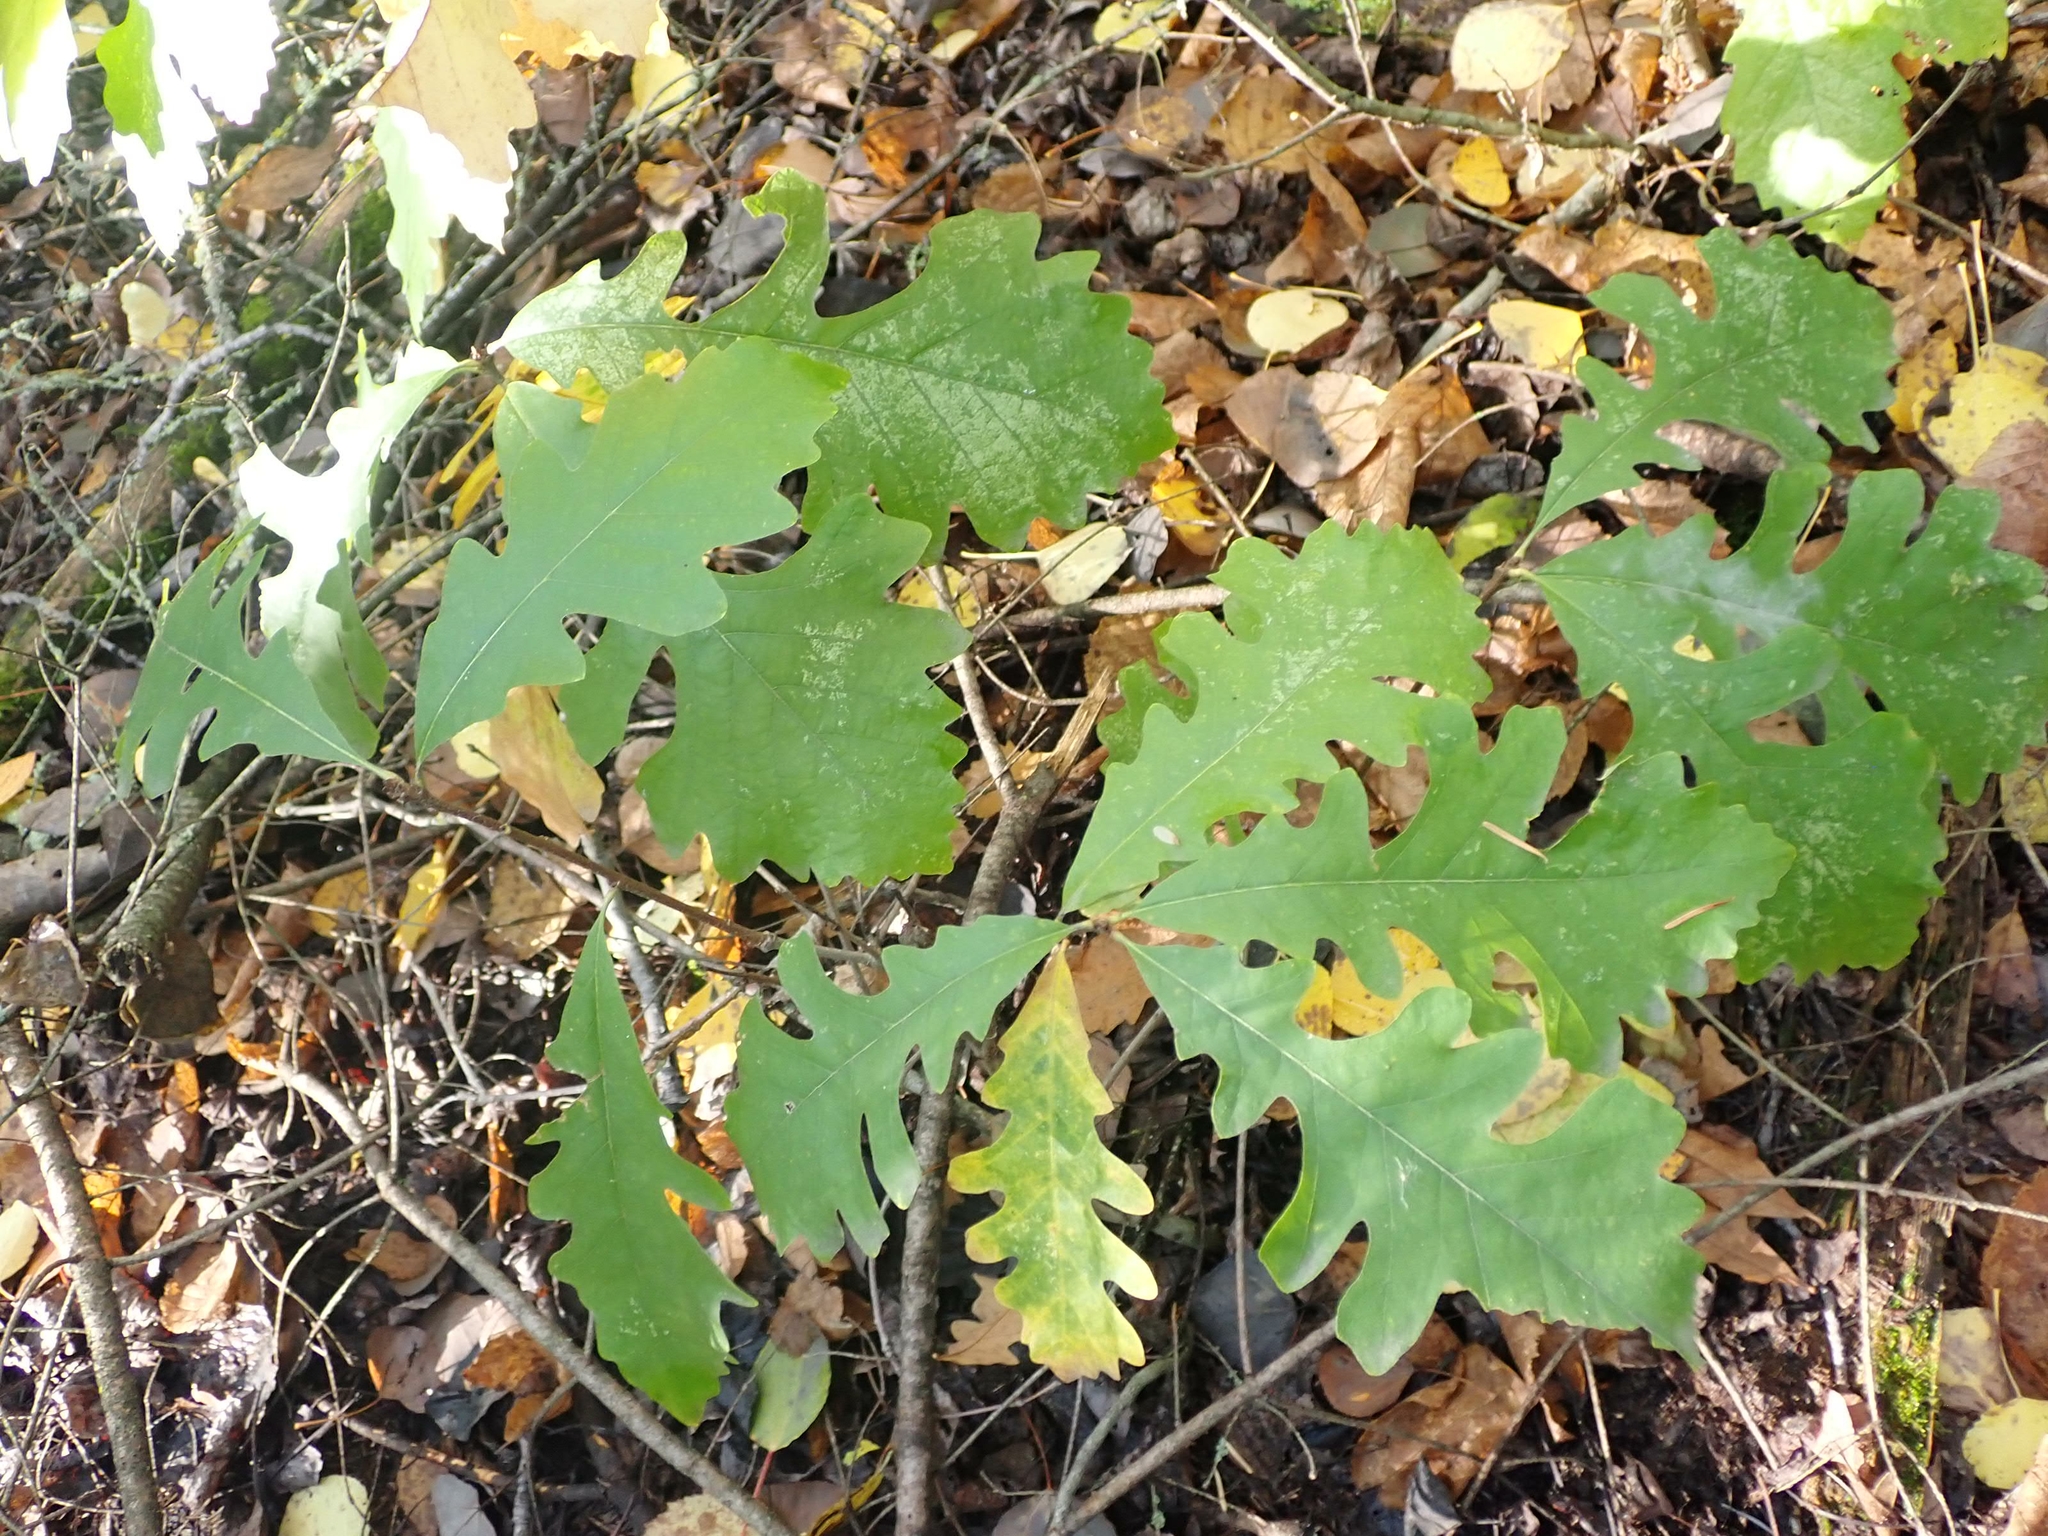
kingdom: Plantae
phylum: Tracheophyta
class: Magnoliopsida
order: Fagales
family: Fagaceae
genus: Quercus
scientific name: Quercus macrocarpa
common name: Bur oak
